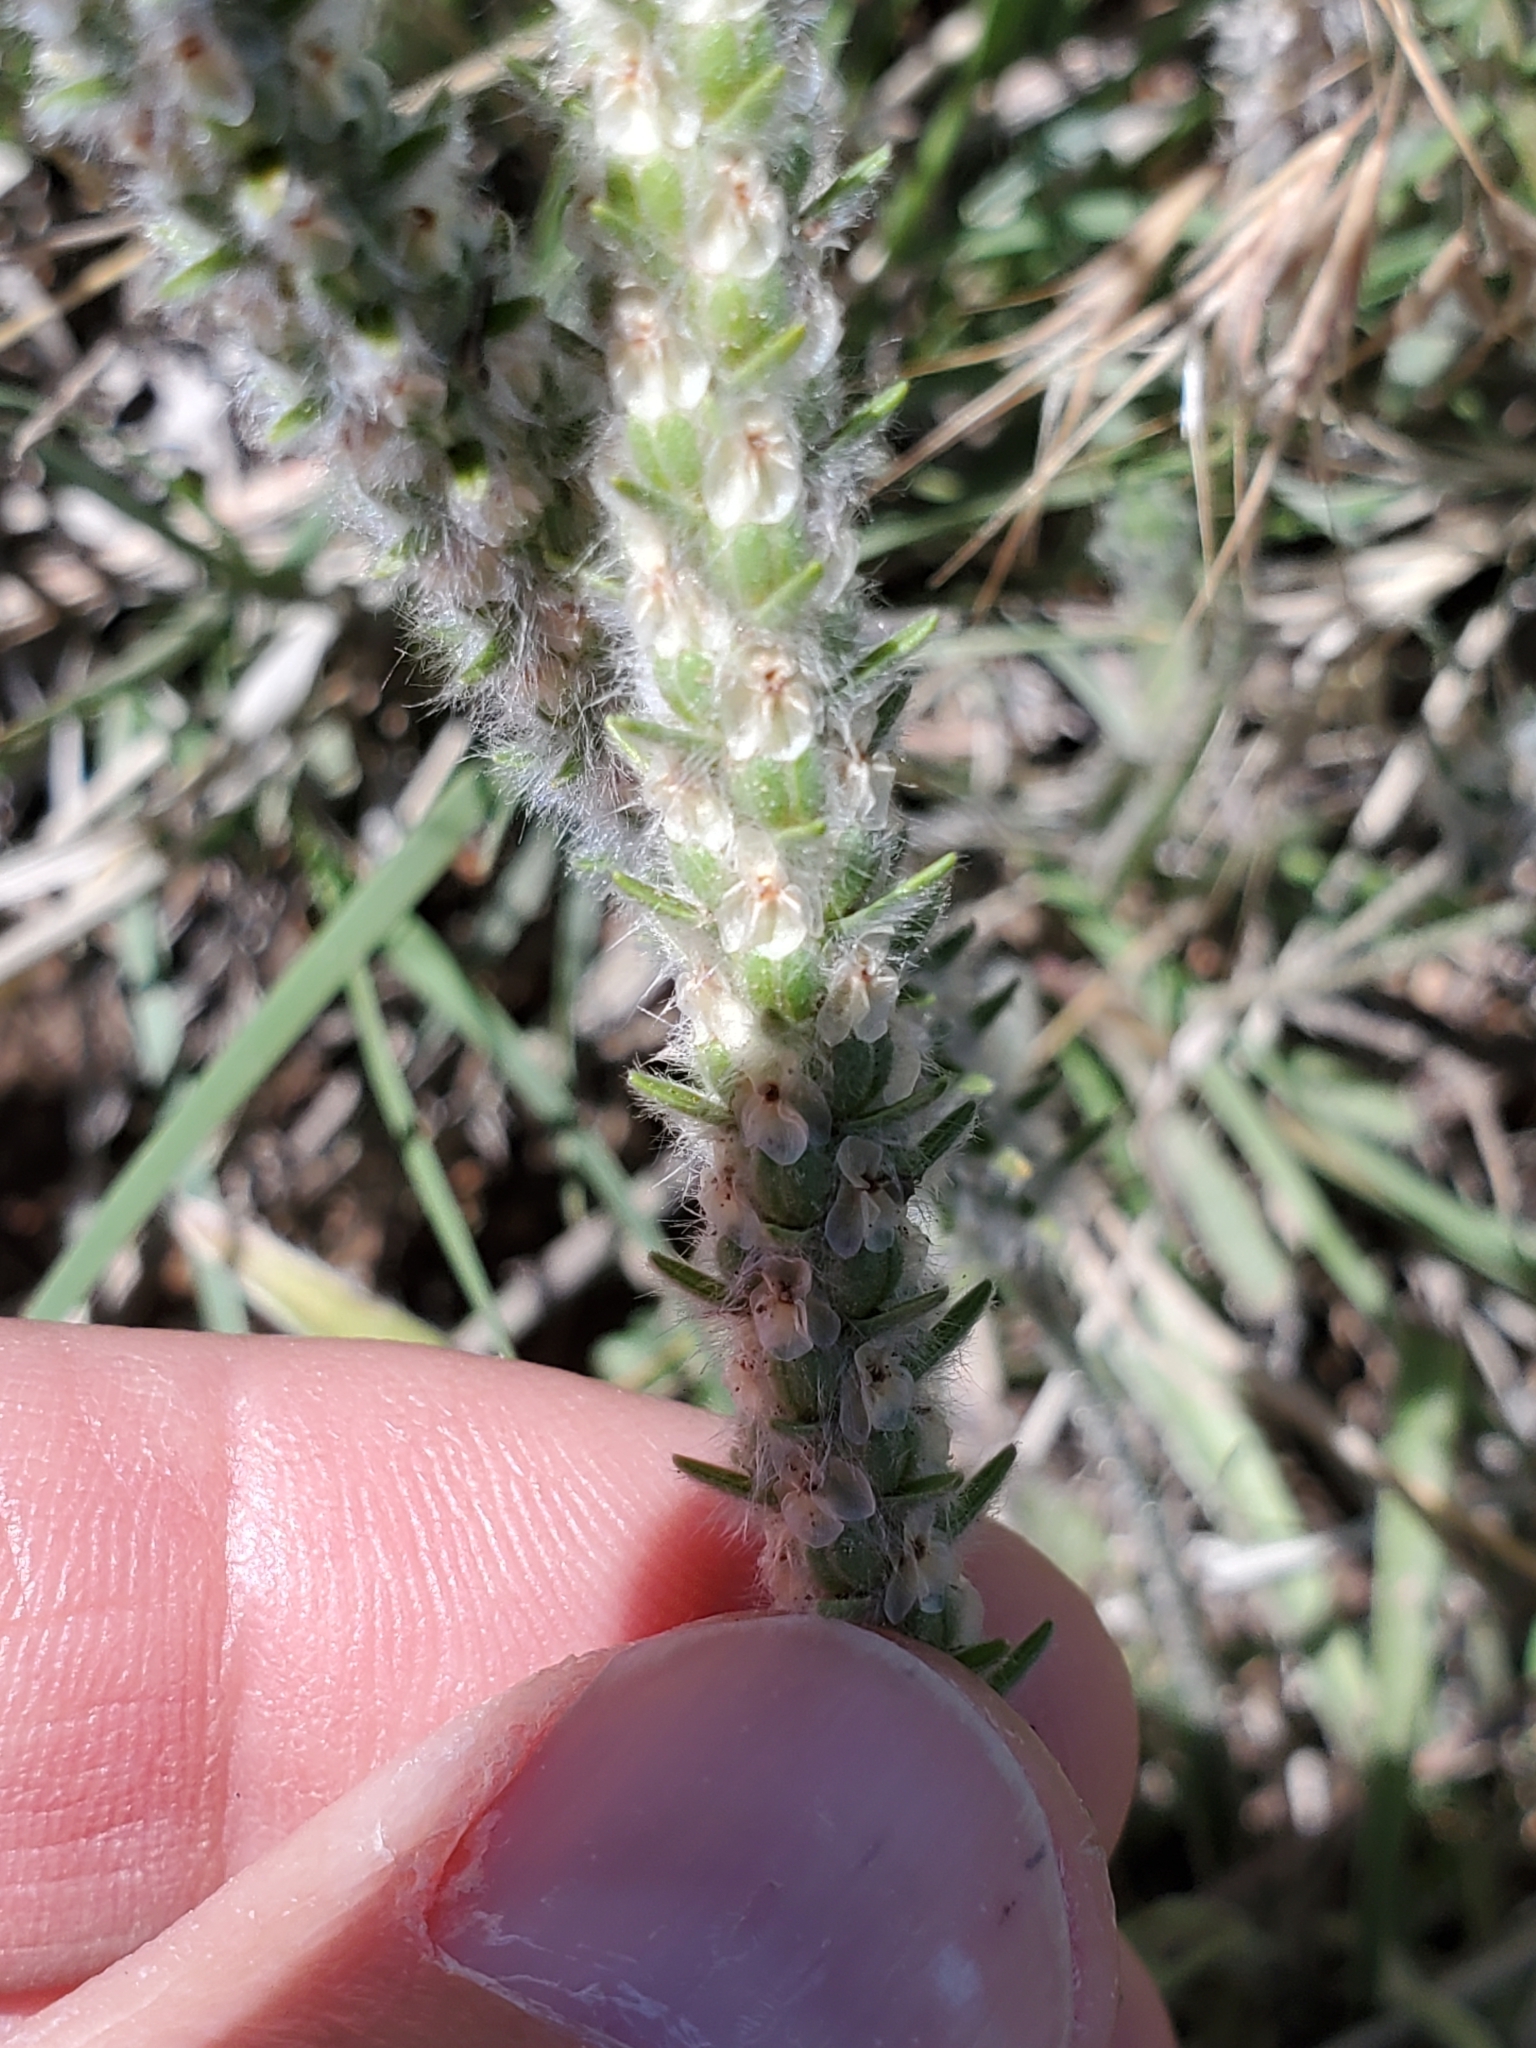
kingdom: Plantae
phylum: Tracheophyta
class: Magnoliopsida
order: Lamiales
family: Plantaginaceae
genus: Plantago
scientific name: Plantago patagonica
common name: Patagonia indian-wheat
